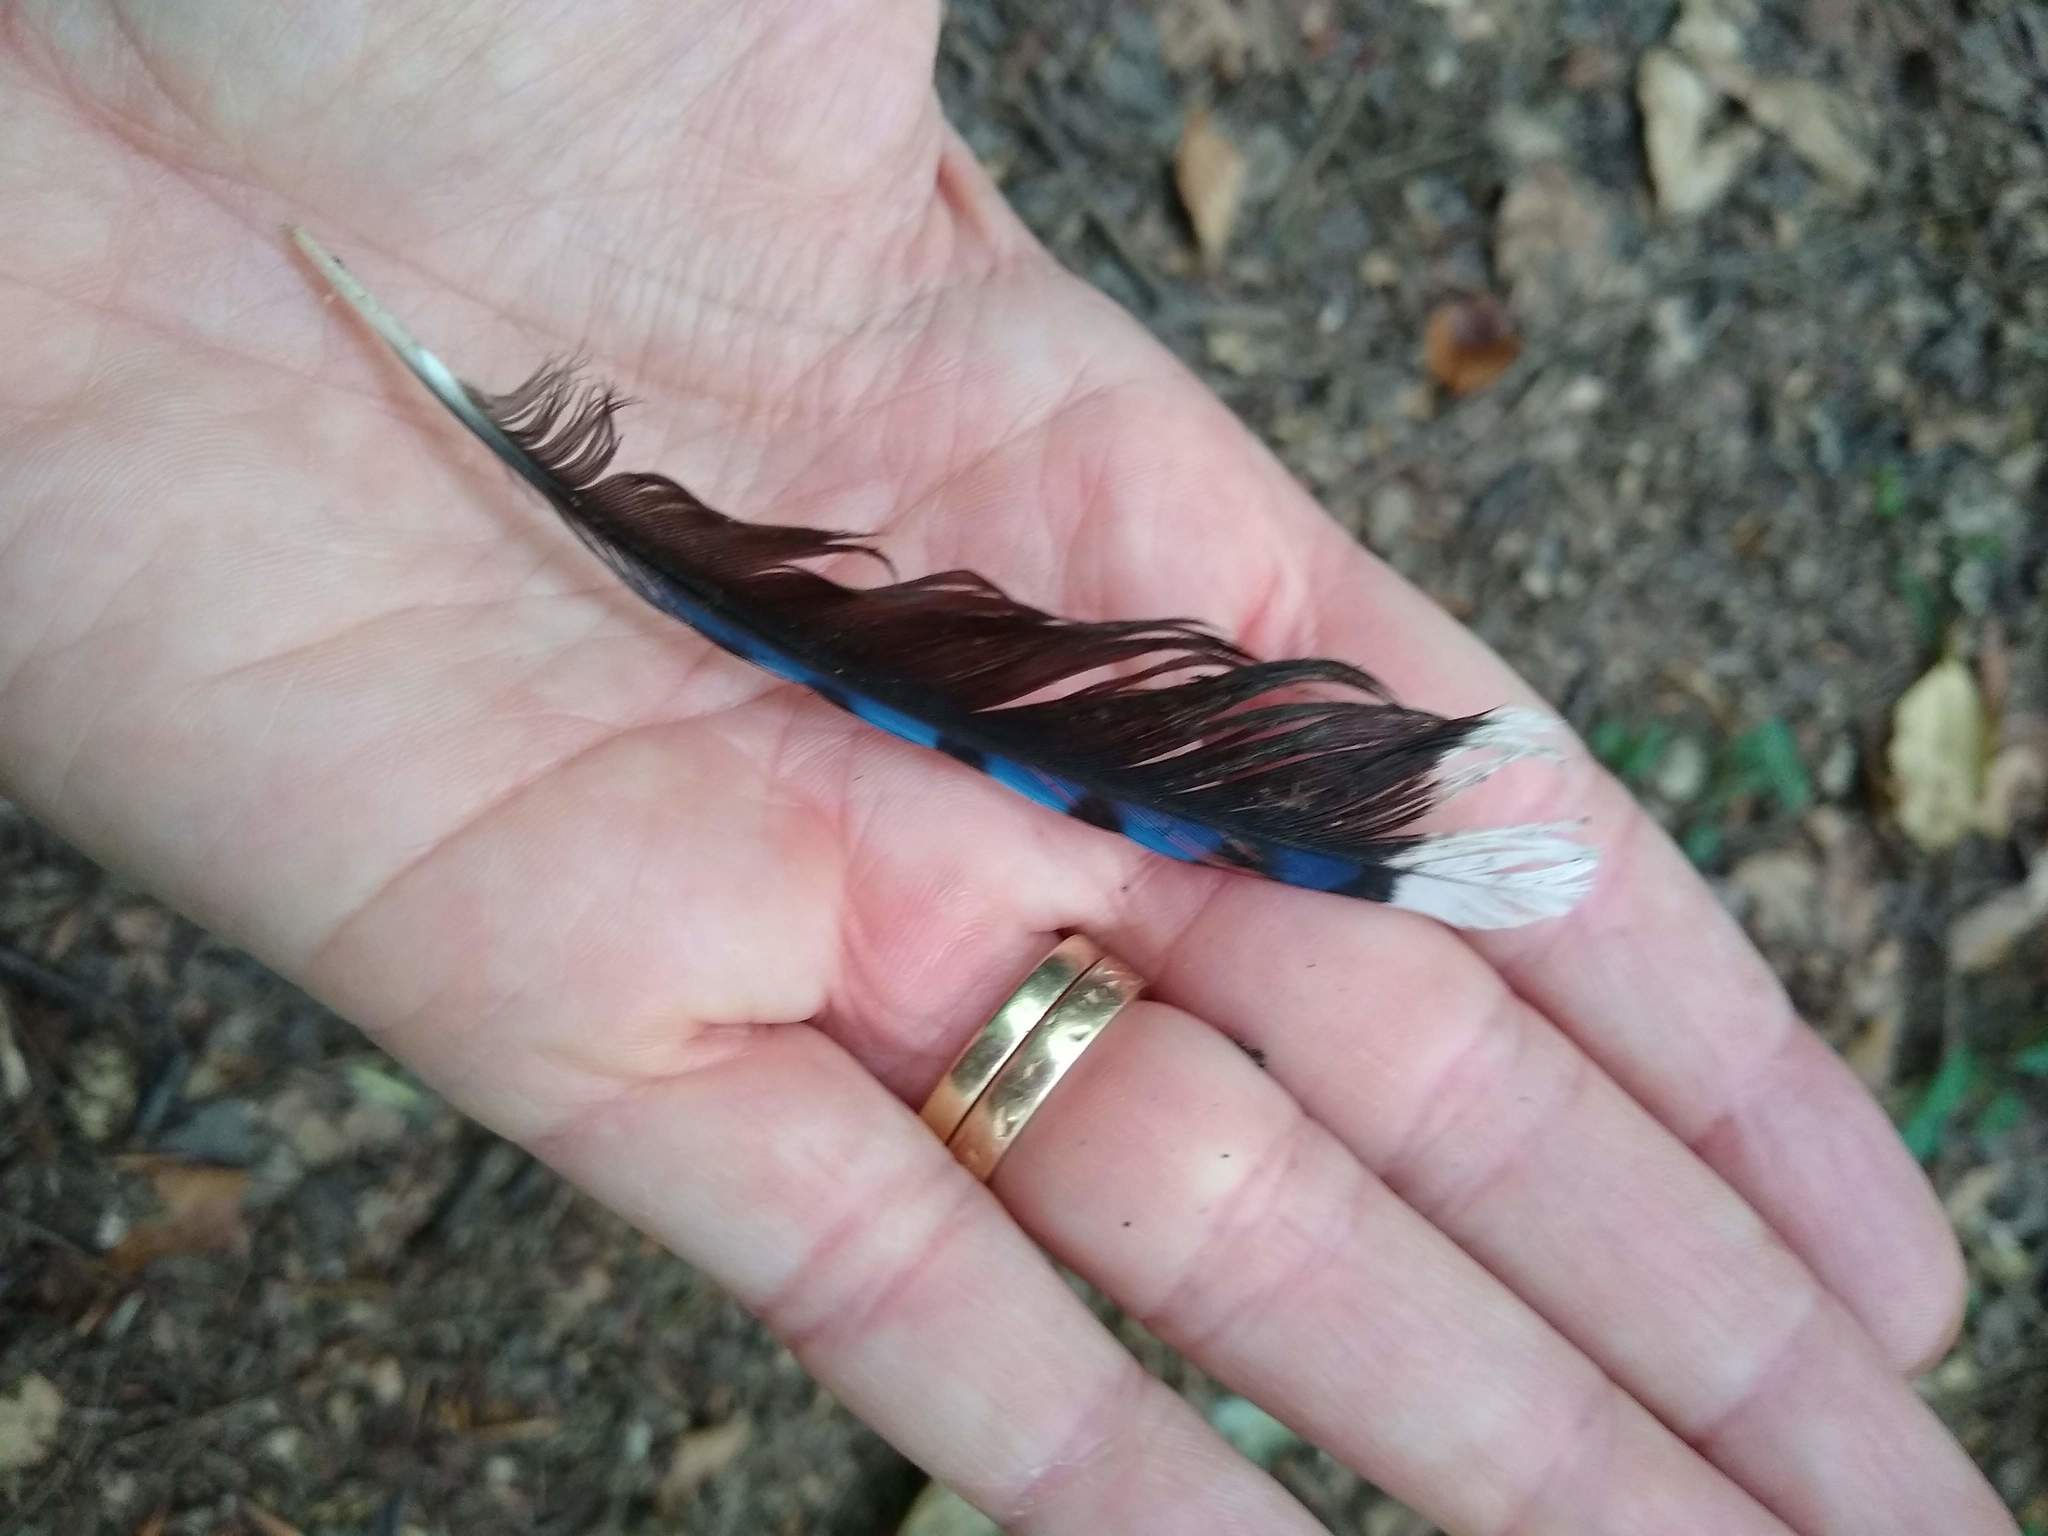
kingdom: Animalia
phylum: Chordata
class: Aves
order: Passeriformes
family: Corvidae
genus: Cyanocitta
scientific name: Cyanocitta cristata
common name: Blue jay
